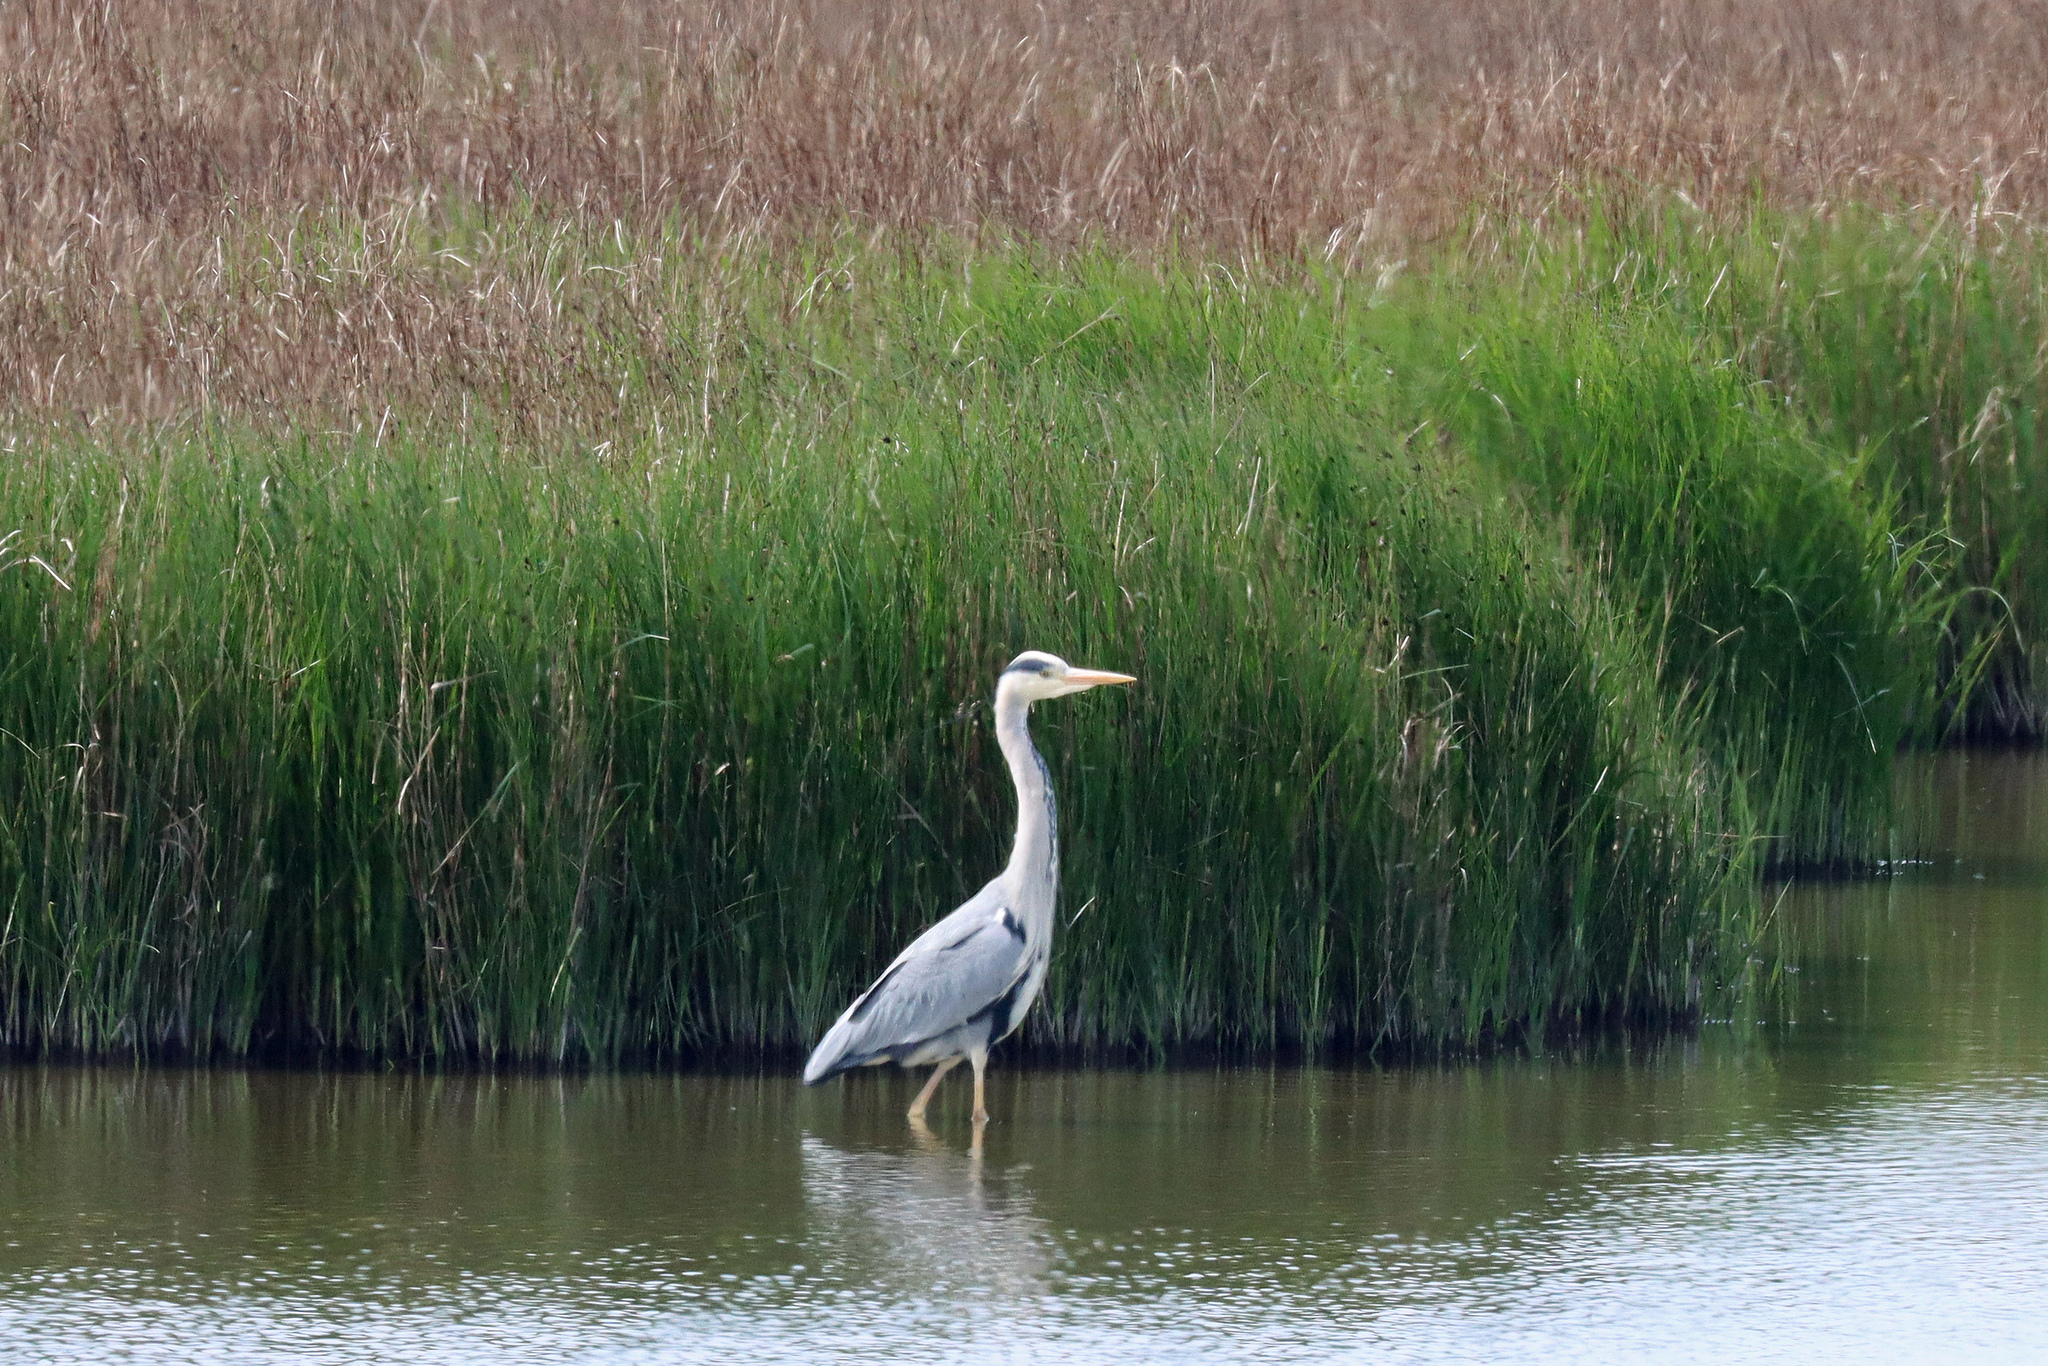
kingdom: Animalia
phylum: Chordata
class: Aves
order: Pelecaniformes
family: Ardeidae
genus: Ardea
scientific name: Ardea cinerea
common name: Grey heron
